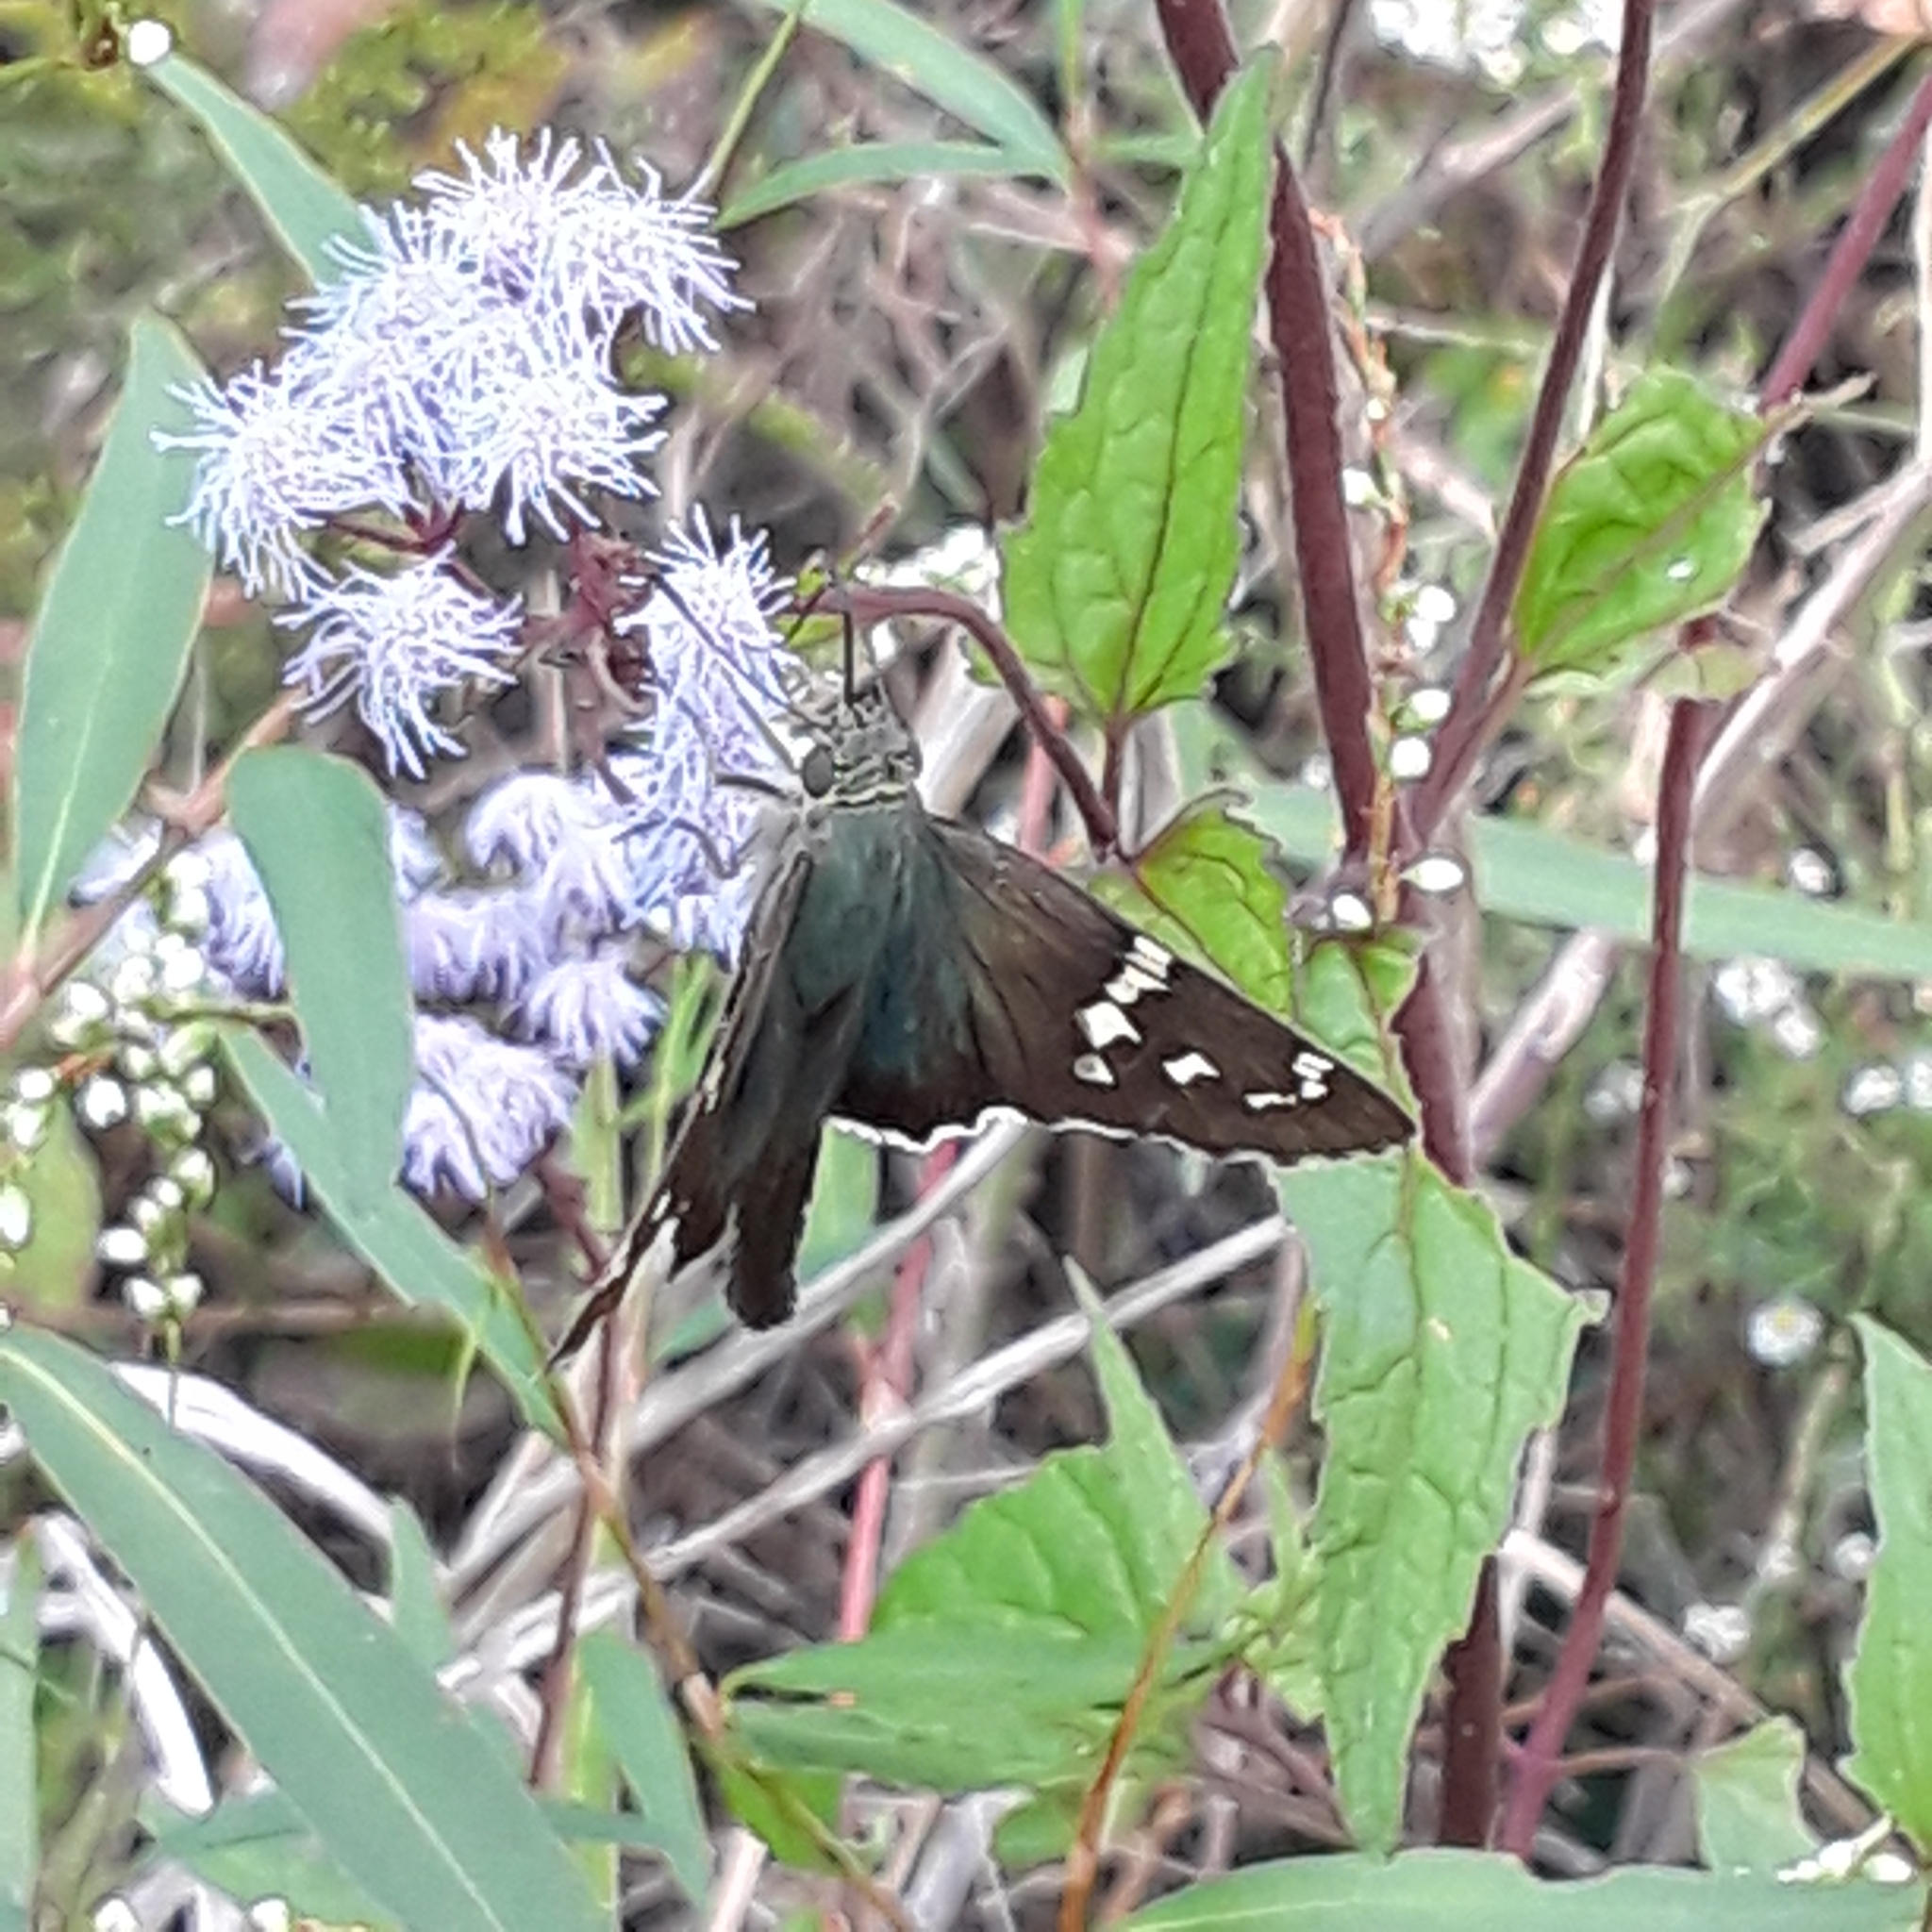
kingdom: Animalia
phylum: Arthropoda
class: Insecta
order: Lepidoptera
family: Hesperiidae
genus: Urbanus
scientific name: Urbanus proteus
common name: Long-tailed skipper
